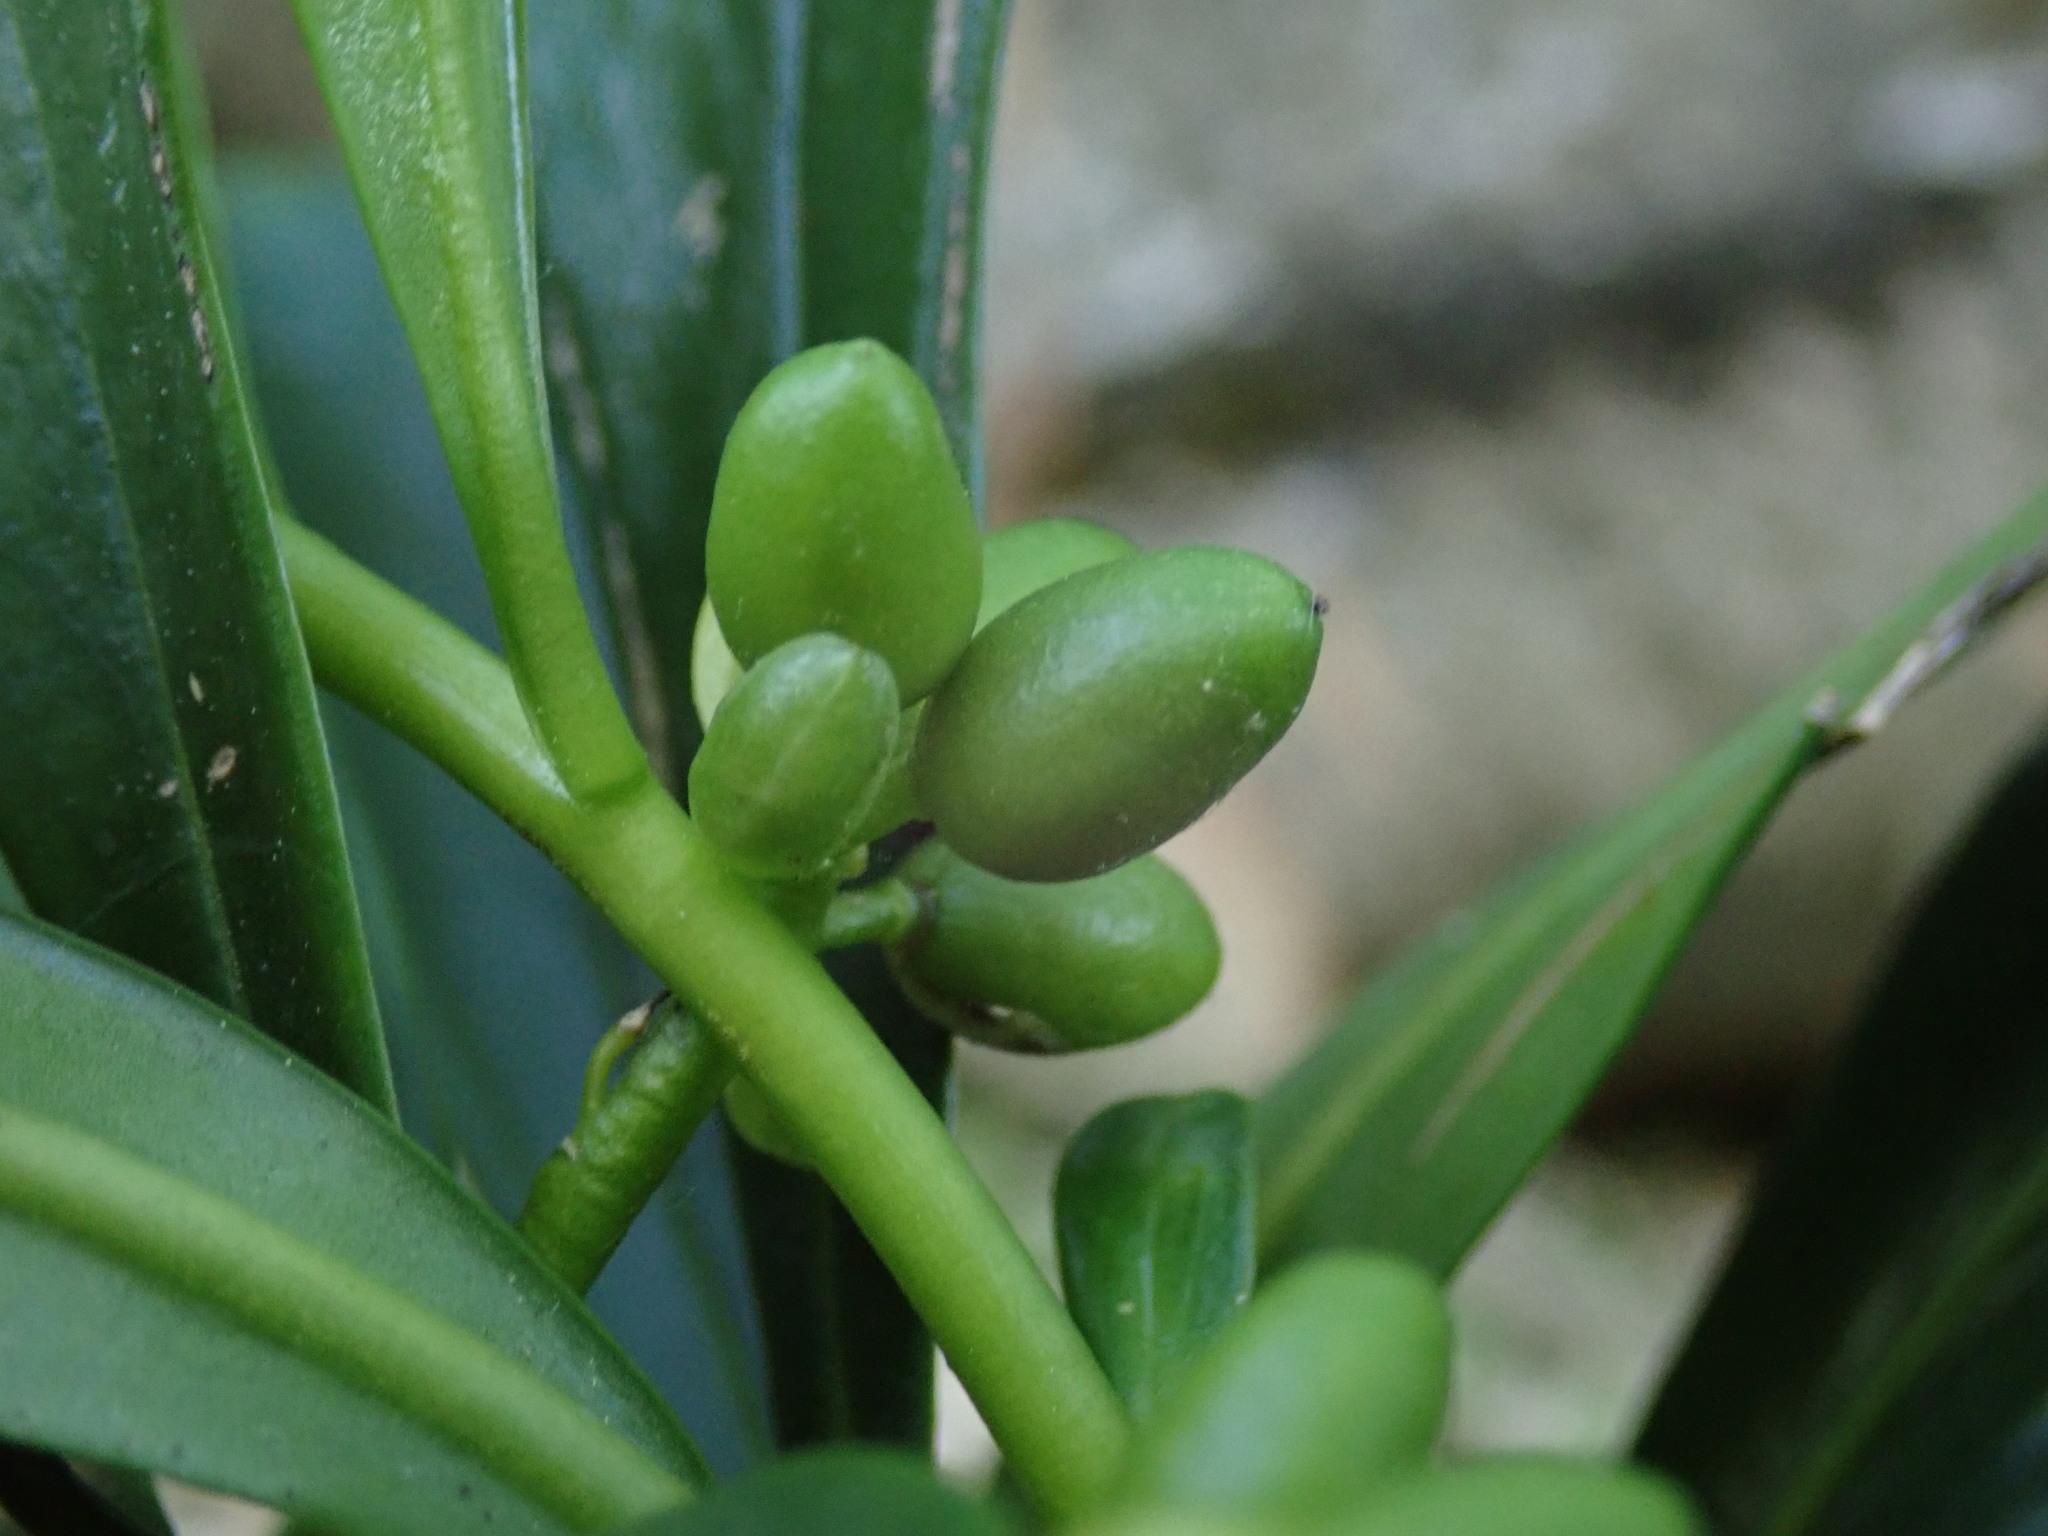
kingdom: Plantae
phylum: Tracheophyta
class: Magnoliopsida
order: Malvales
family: Thymelaeaceae
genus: Daphne
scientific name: Daphne laureola
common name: Spurge-laurel
